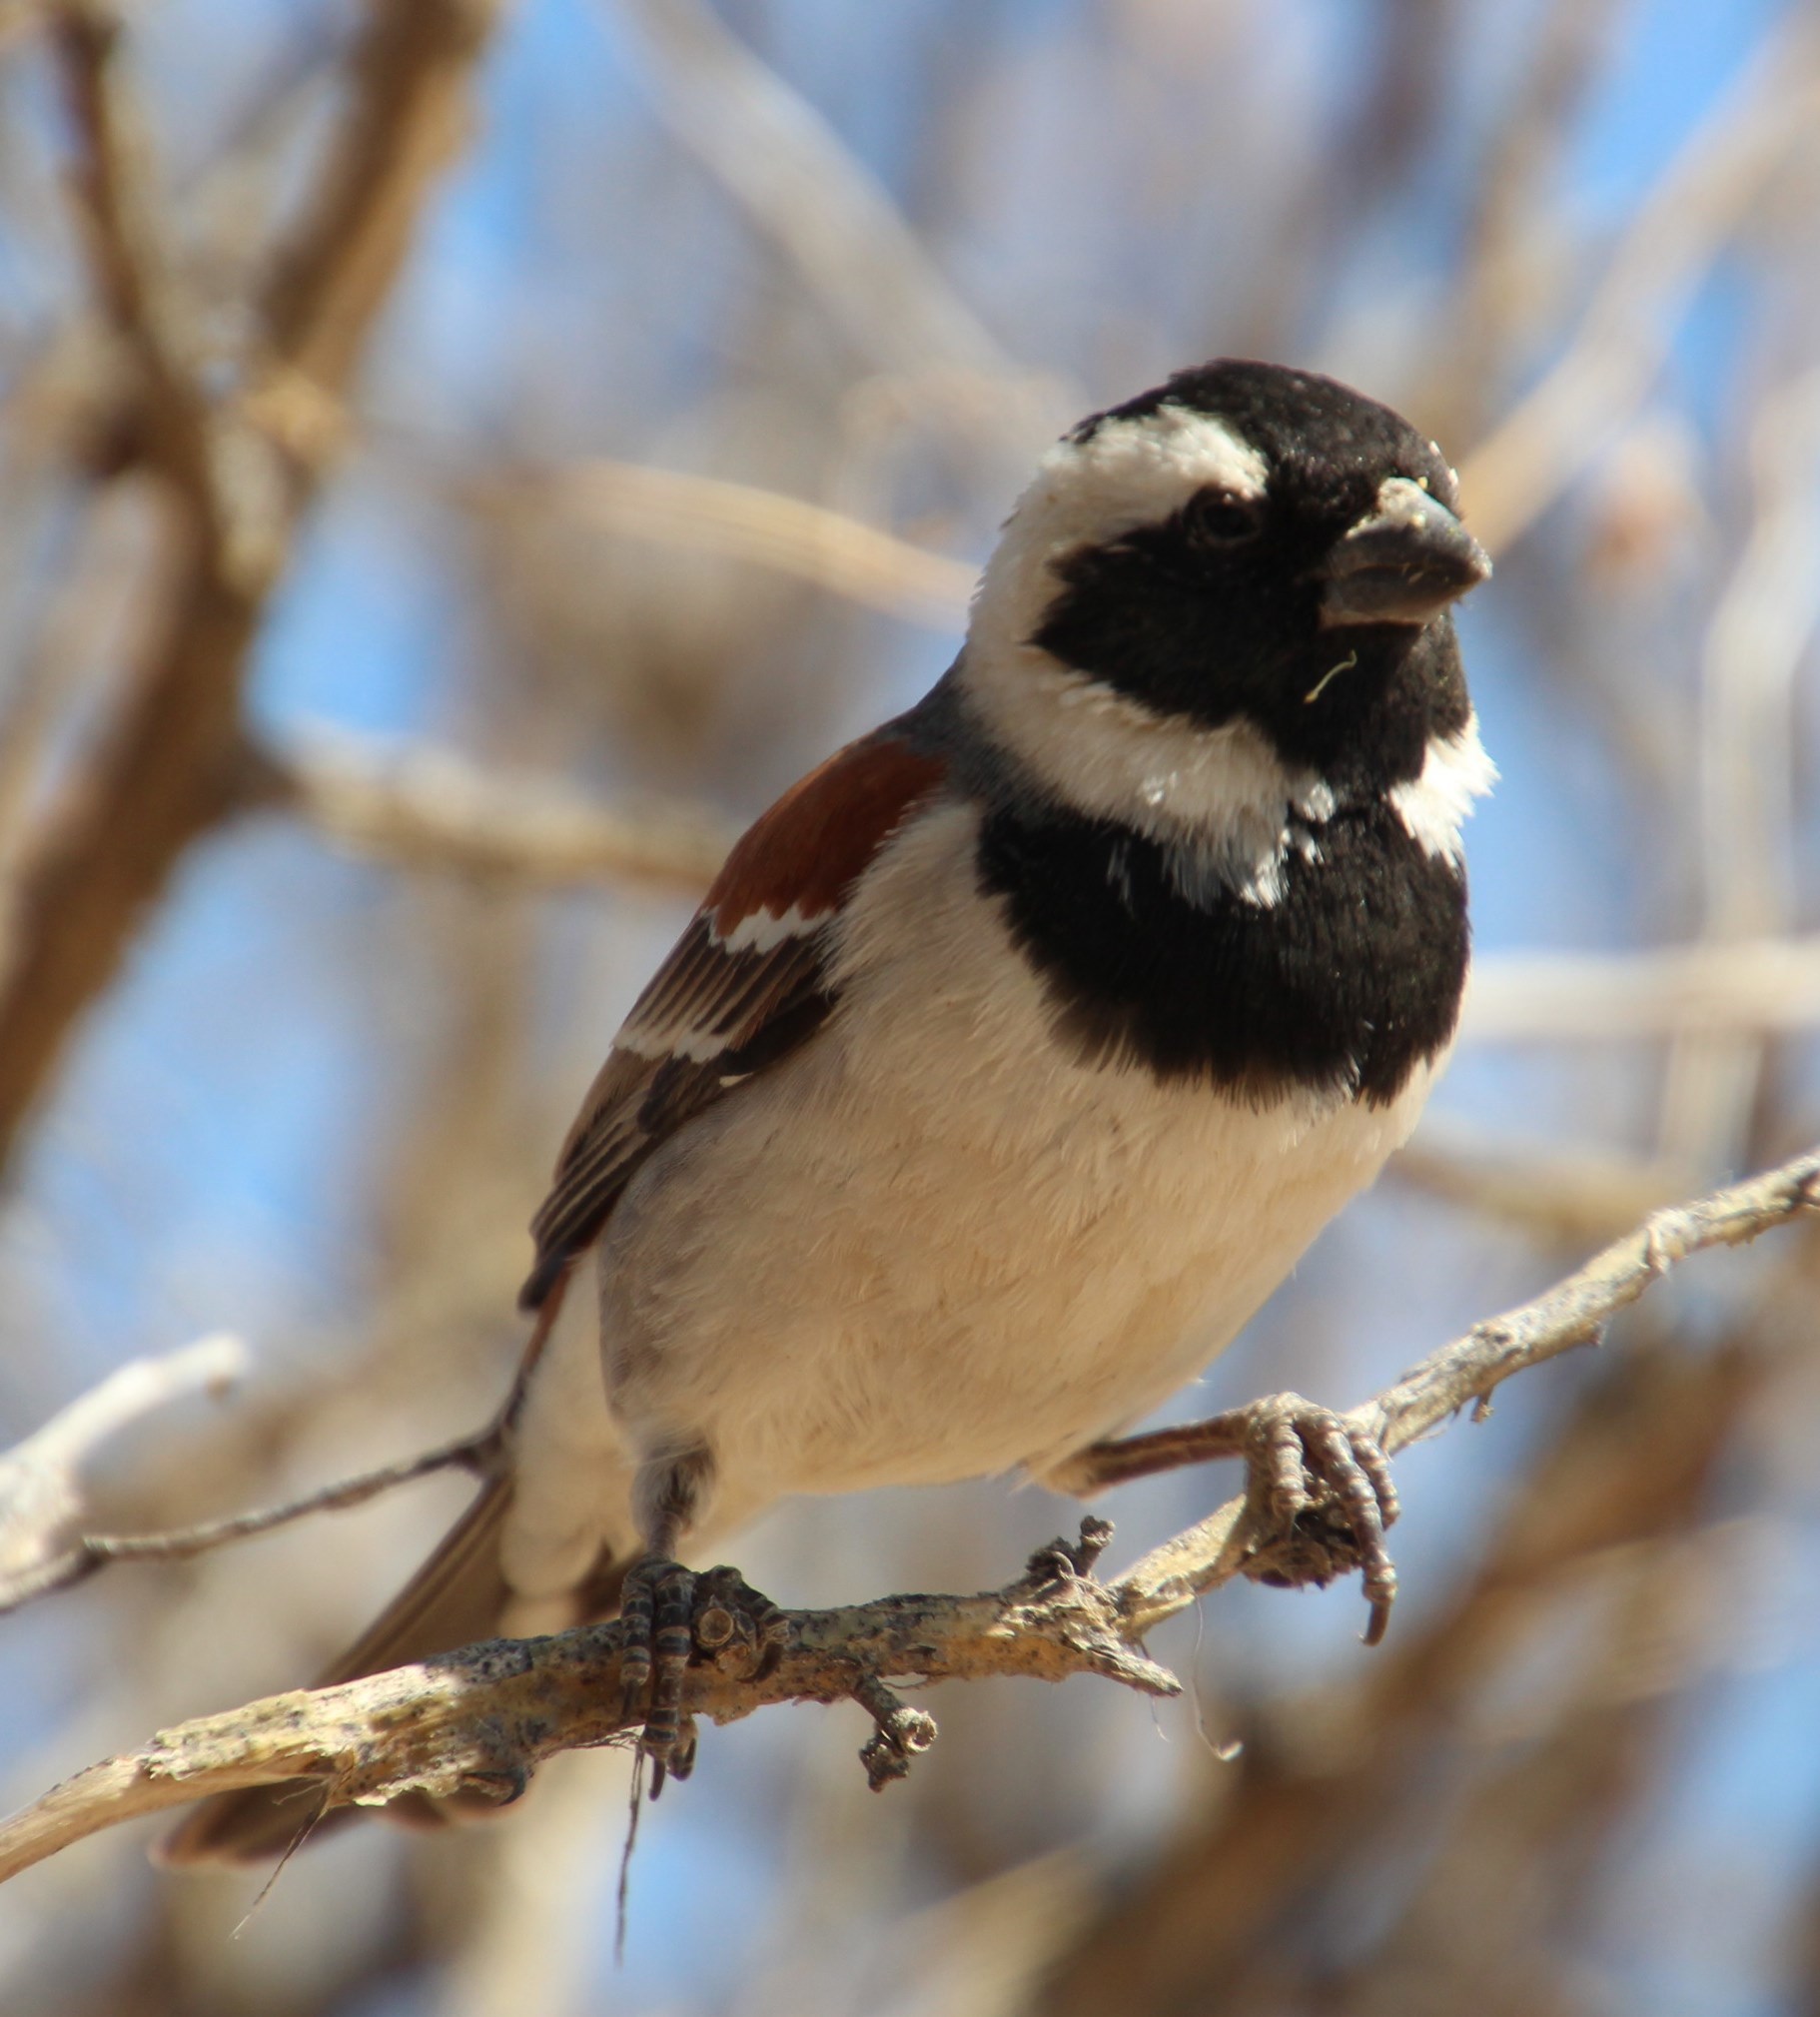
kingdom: Animalia
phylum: Chordata
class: Aves
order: Passeriformes
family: Passeridae
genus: Passer
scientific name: Passer melanurus
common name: Cape sparrow
